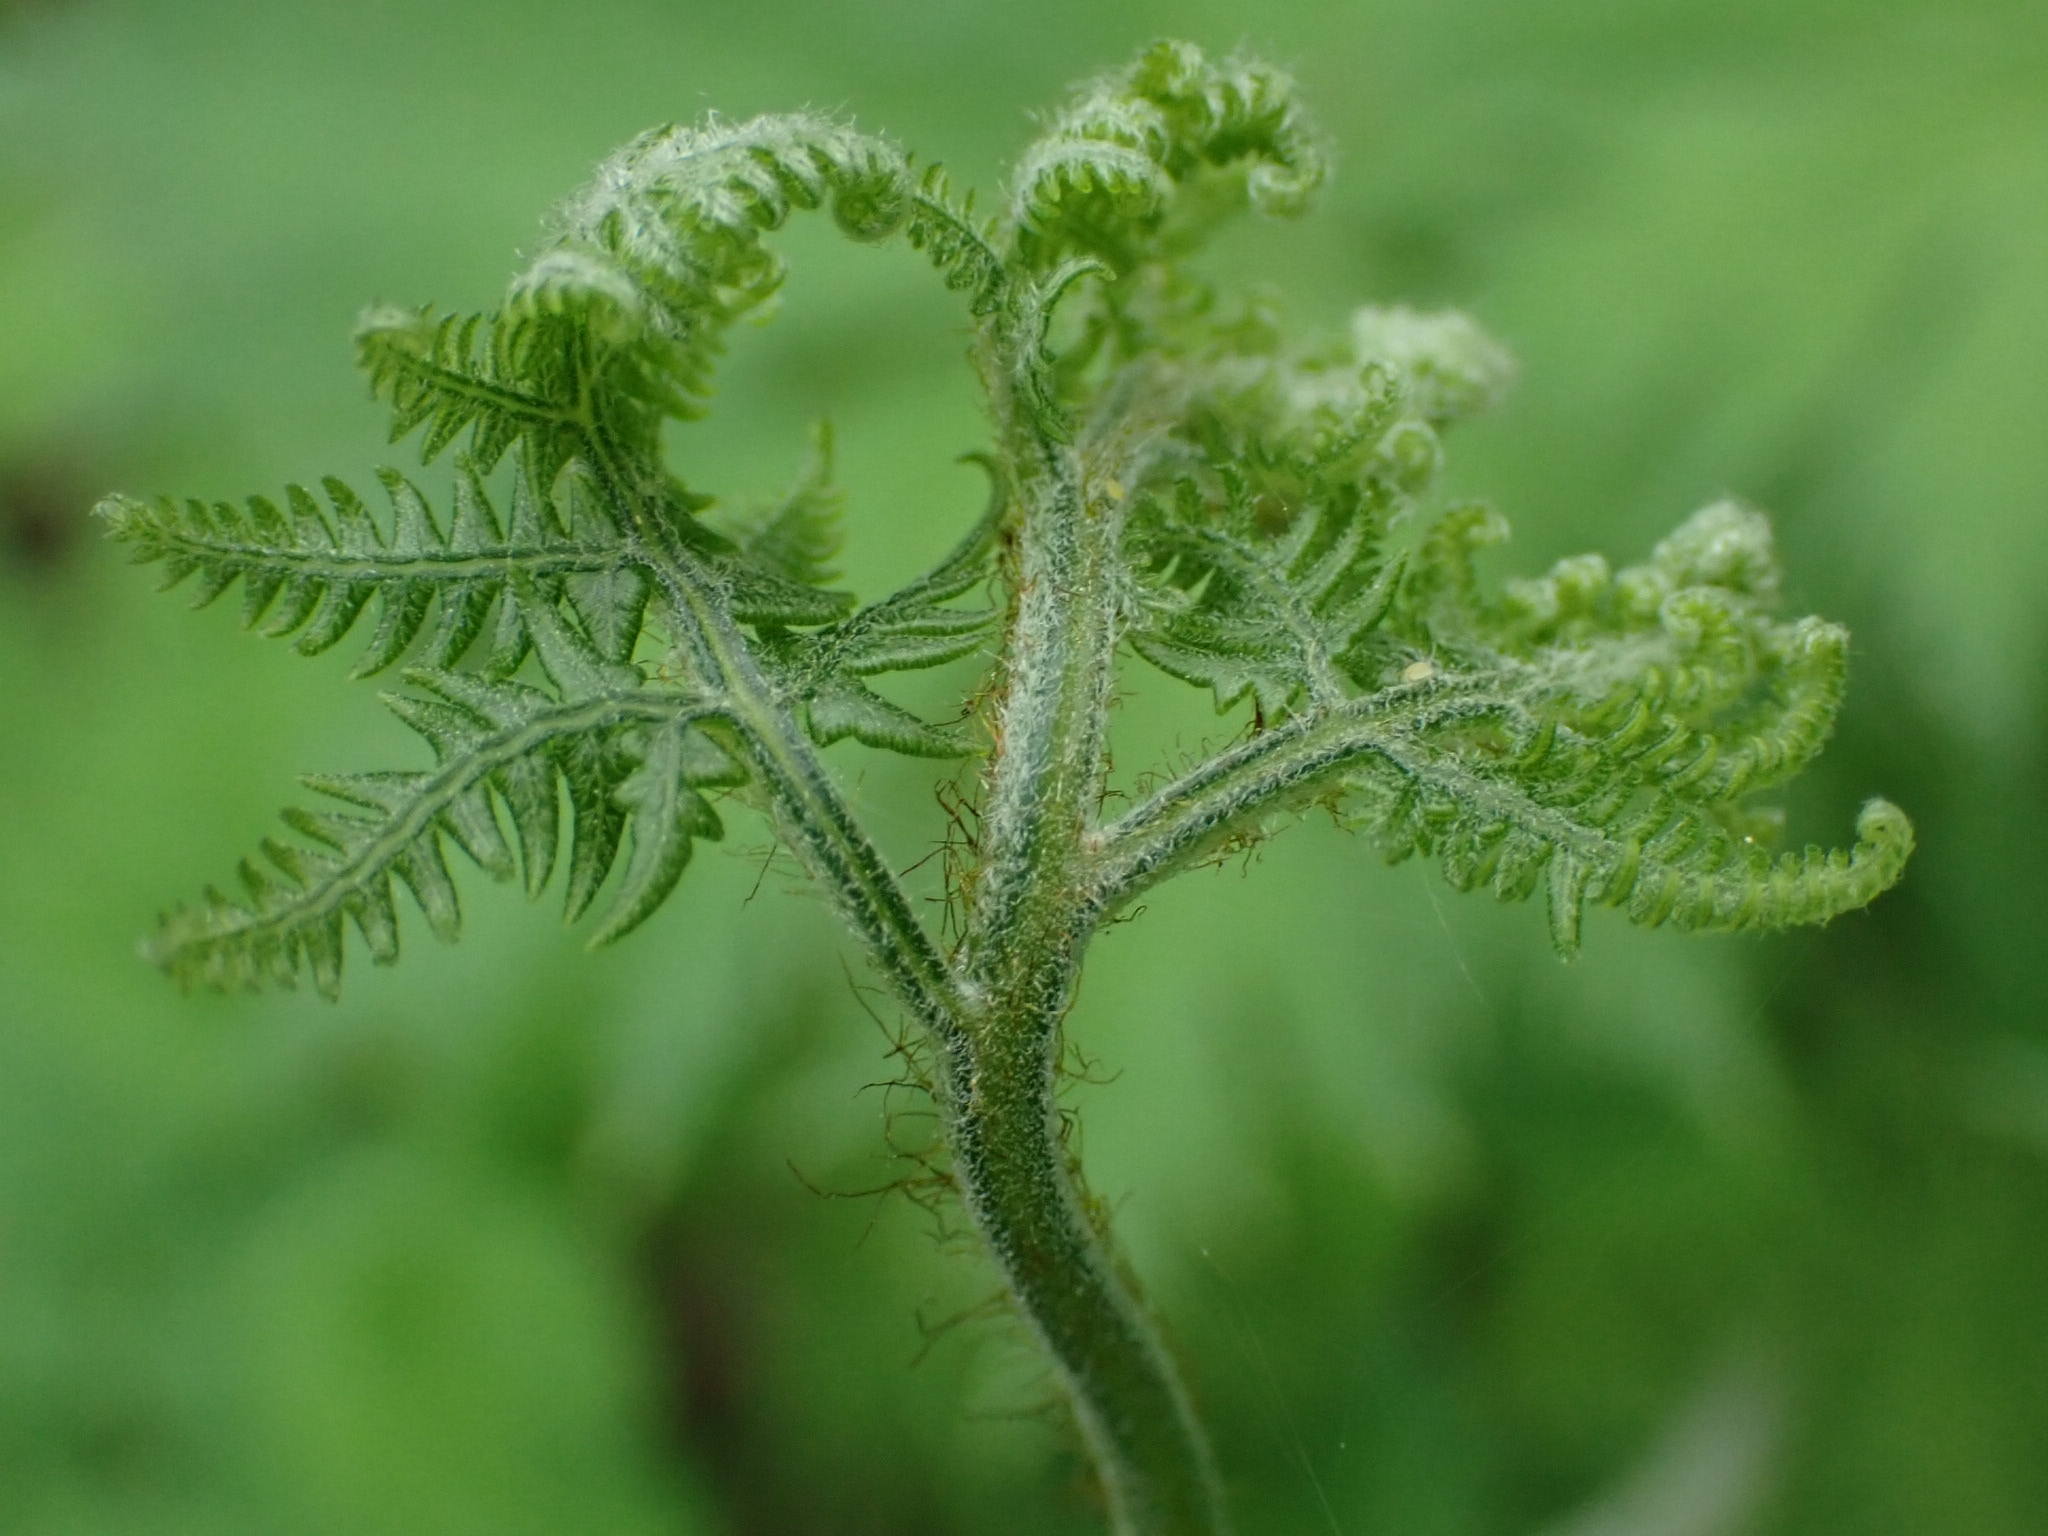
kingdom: Plantae
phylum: Tracheophyta
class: Polypodiopsida
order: Polypodiales
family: Dennstaedtiaceae
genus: Pteridium
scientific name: Pteridium aquilinum
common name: Bracken
